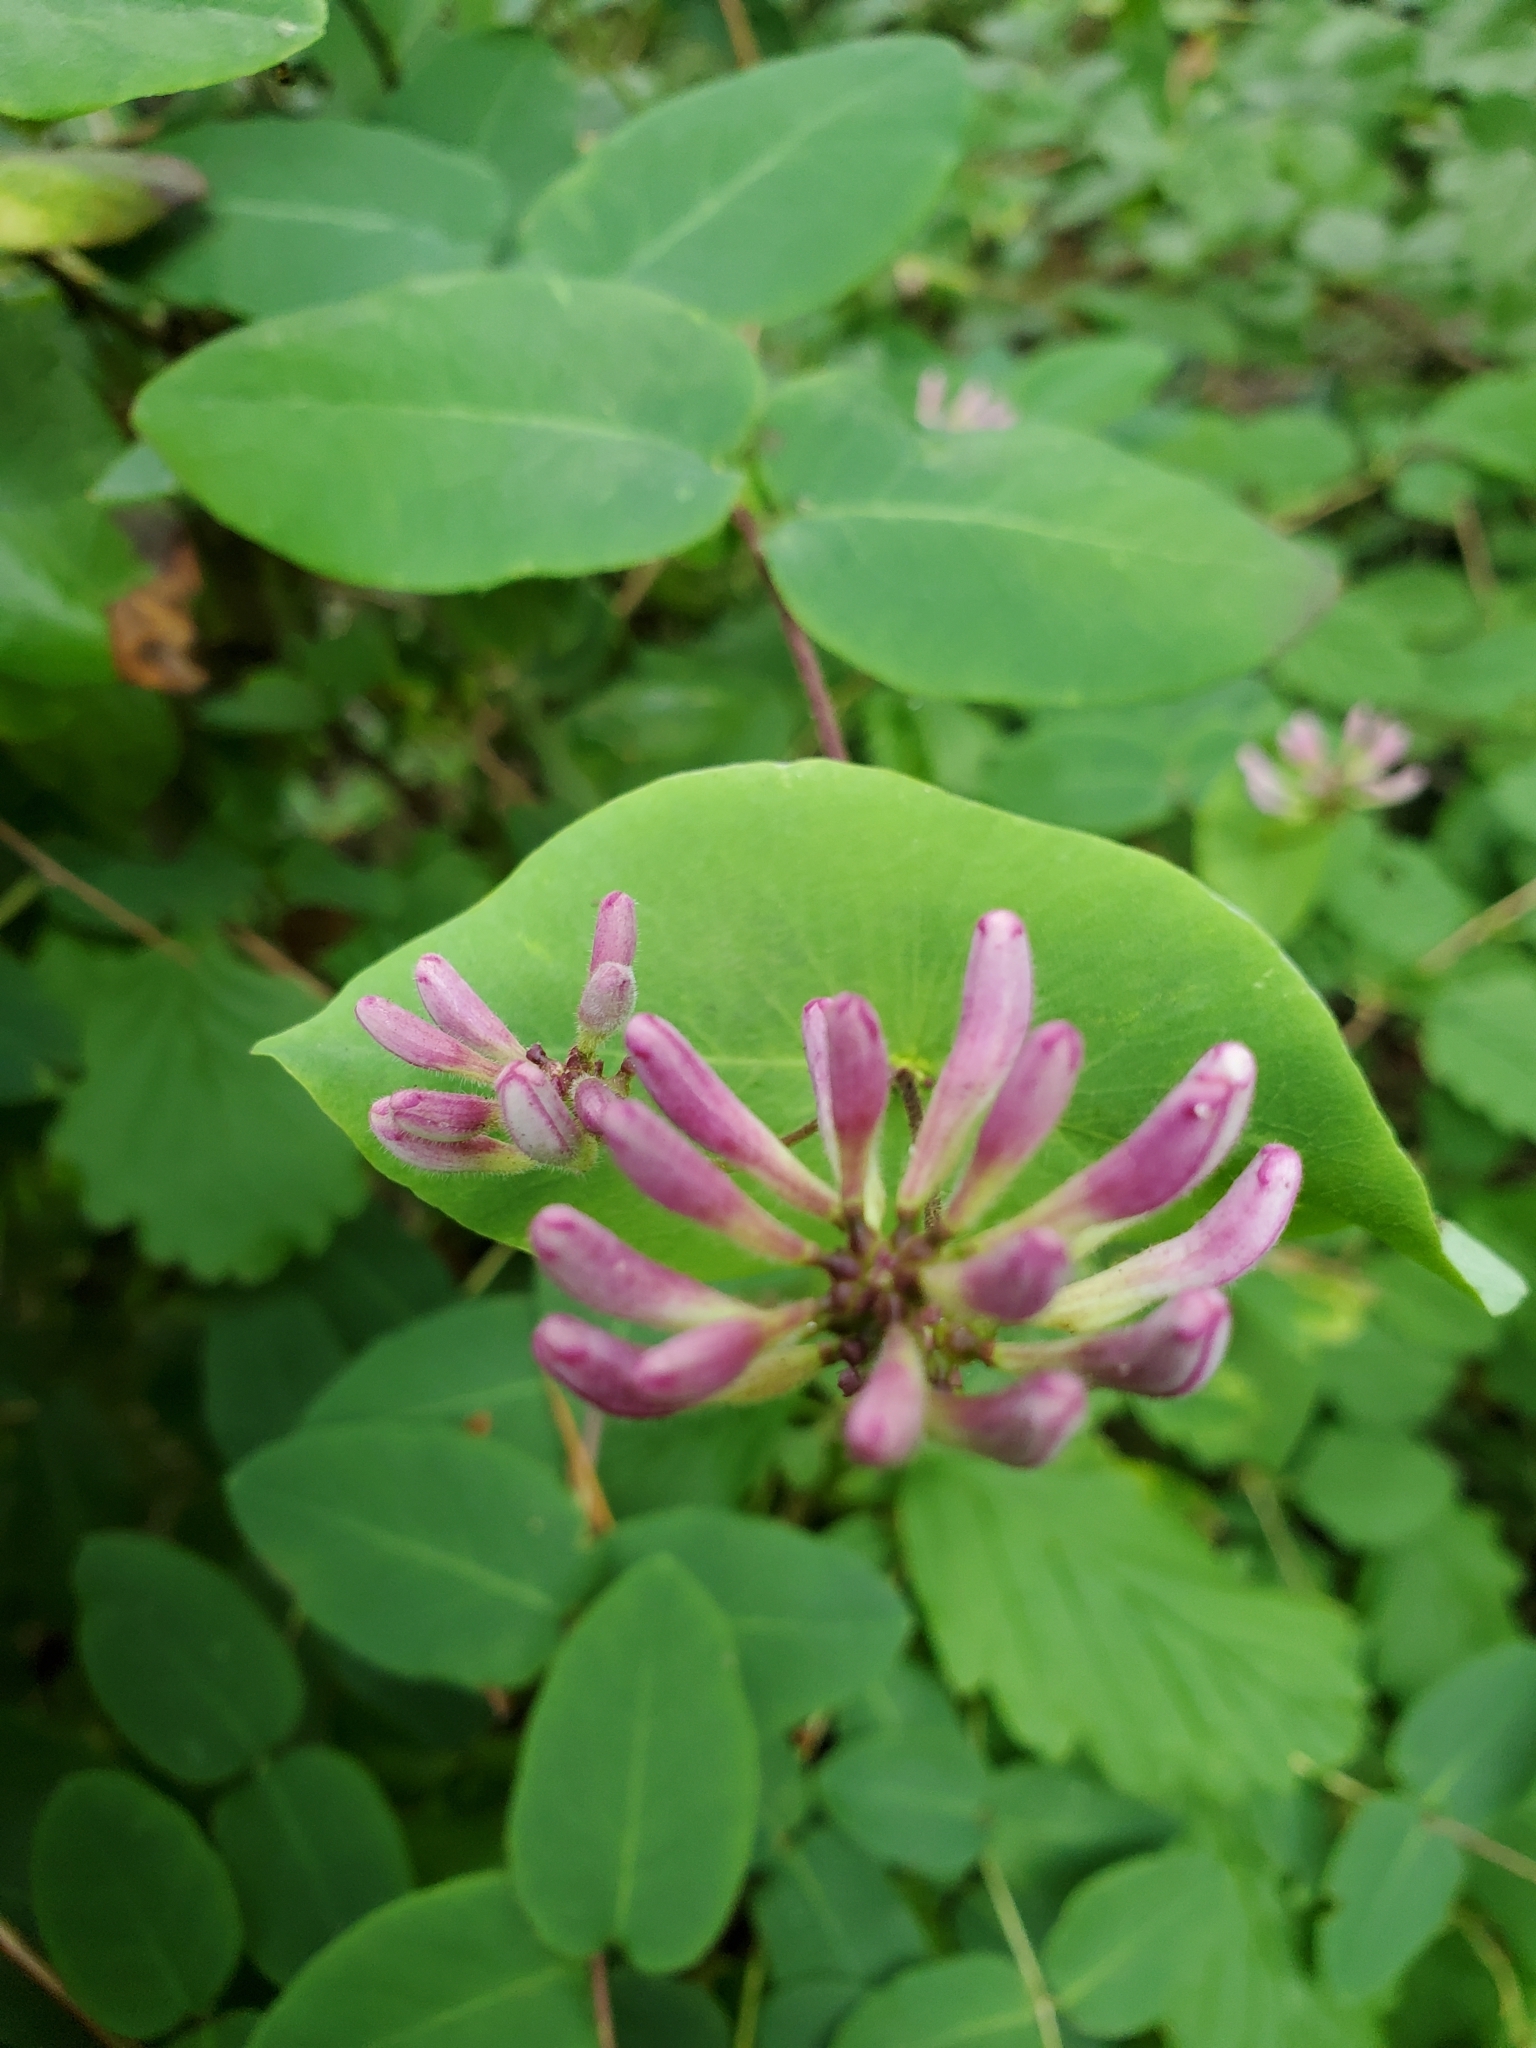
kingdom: Plantae
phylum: Tracheophyta
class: Magnoliopsida
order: Dipsacales
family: Caprifoliaceae
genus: Lonicera
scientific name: Lonicera hispidula
